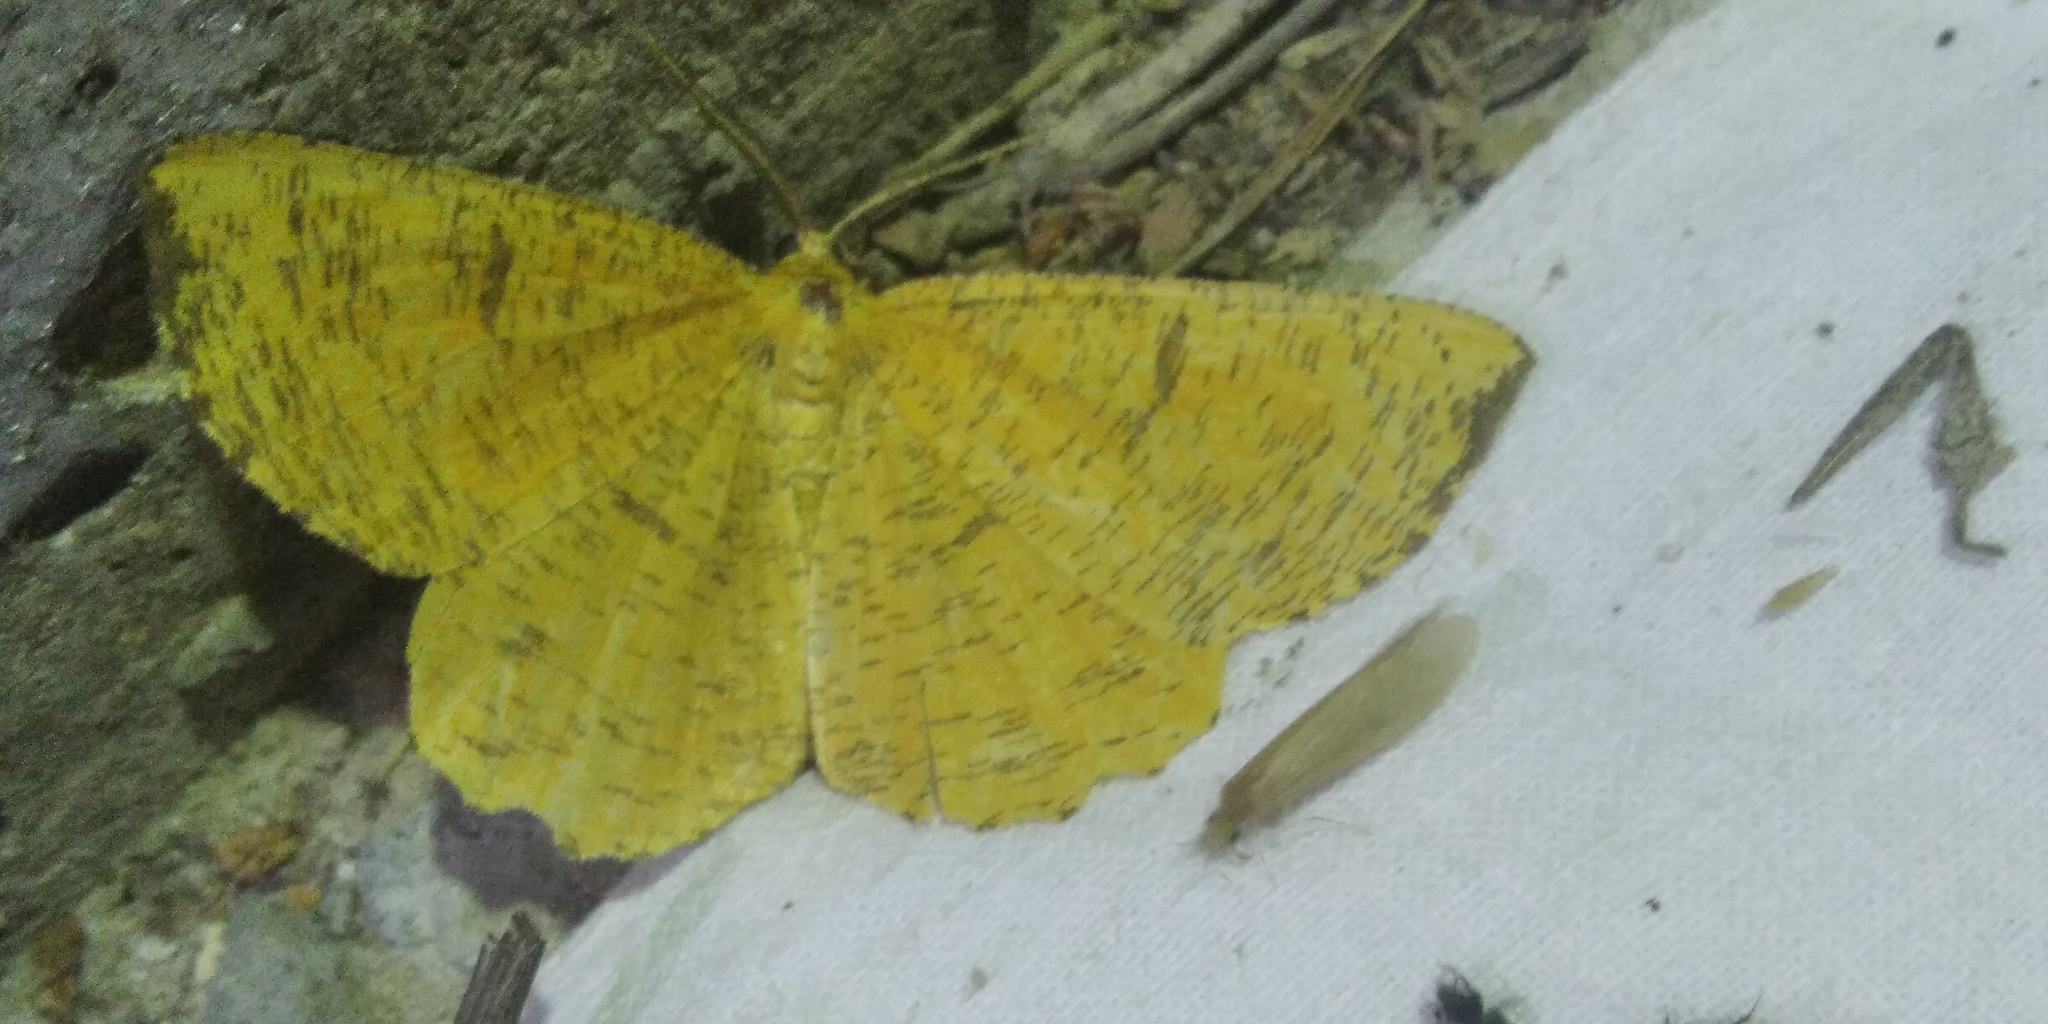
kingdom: Animalia
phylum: Arthropoda
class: Insecta
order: Lepidoptera
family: Geometridae
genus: Angerona
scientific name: Angerona prunaria
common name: Orange moth
